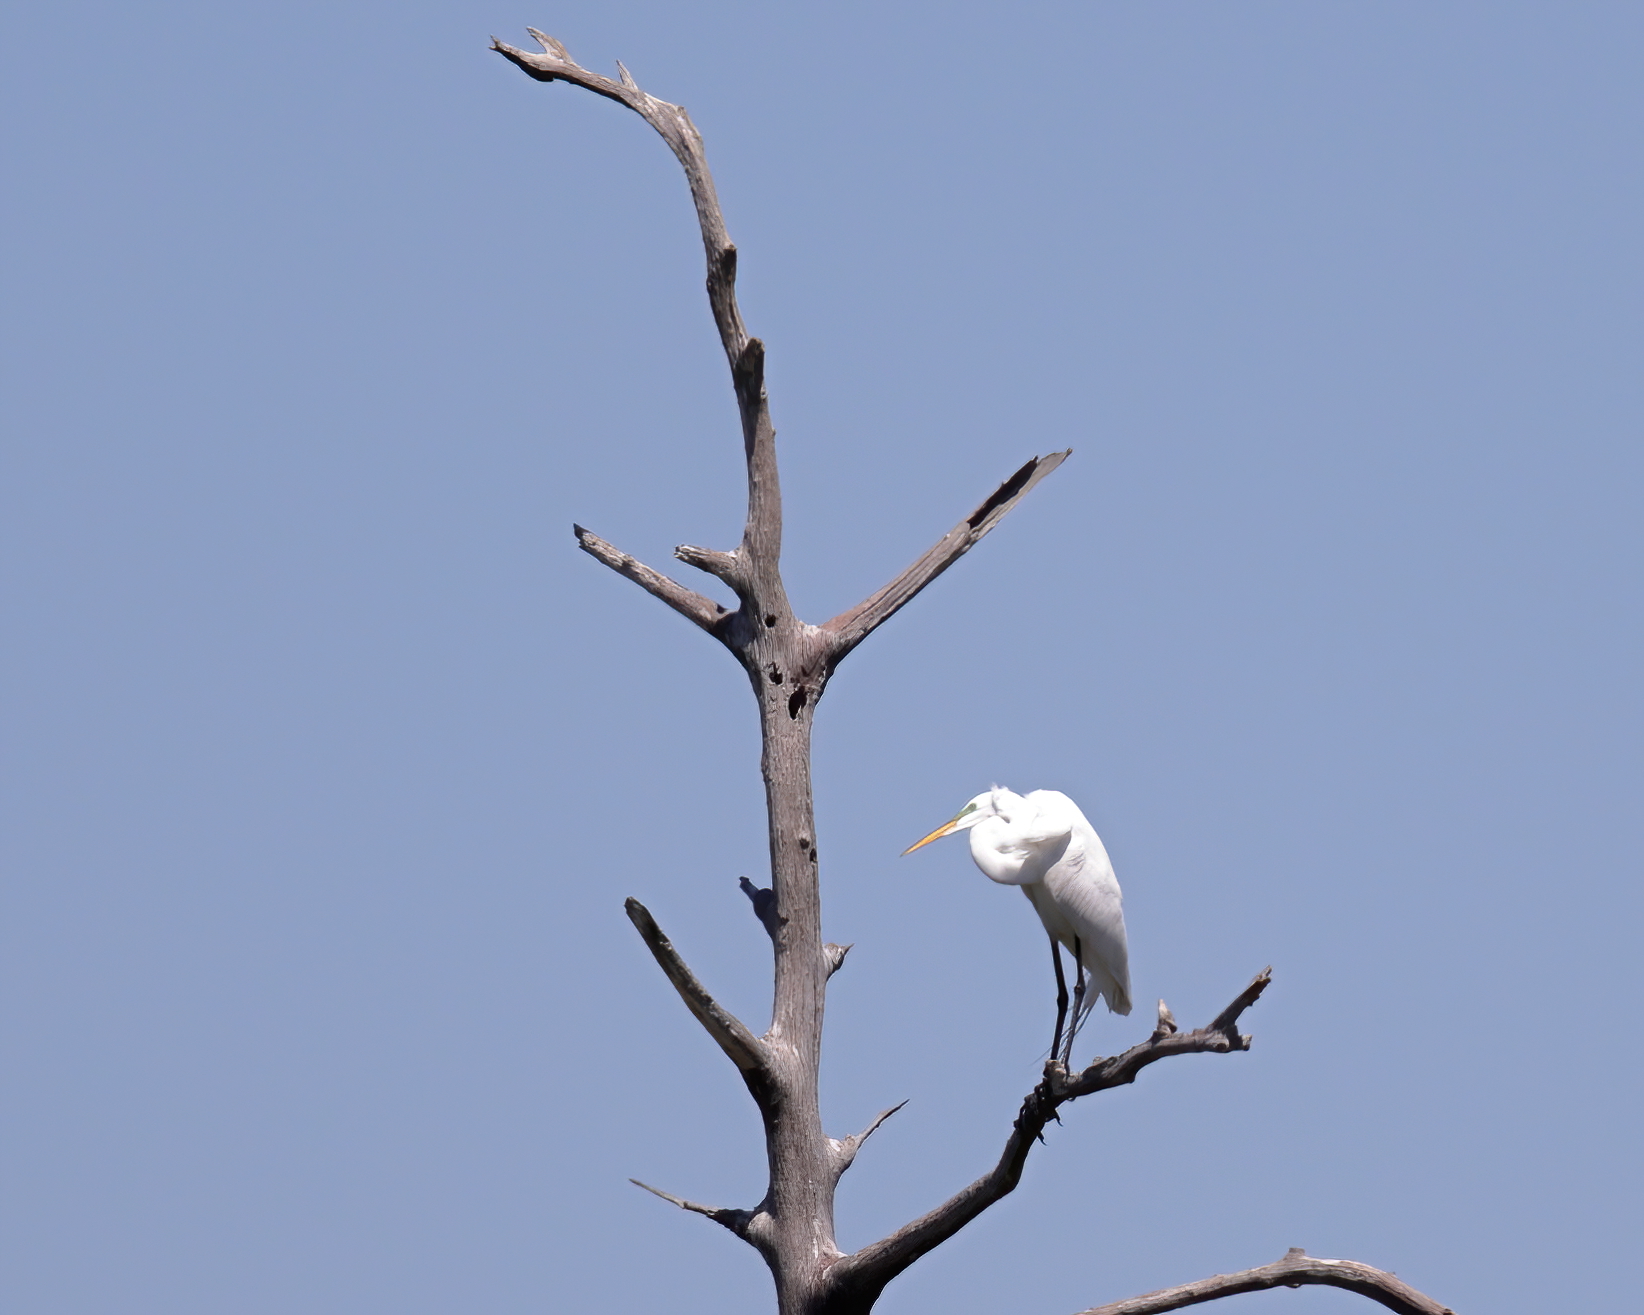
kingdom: Animalia
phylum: Chordata
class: Aves
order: Pelecaniformes
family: Ardeidae
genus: Ardea
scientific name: Ardea alba
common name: Great egret
